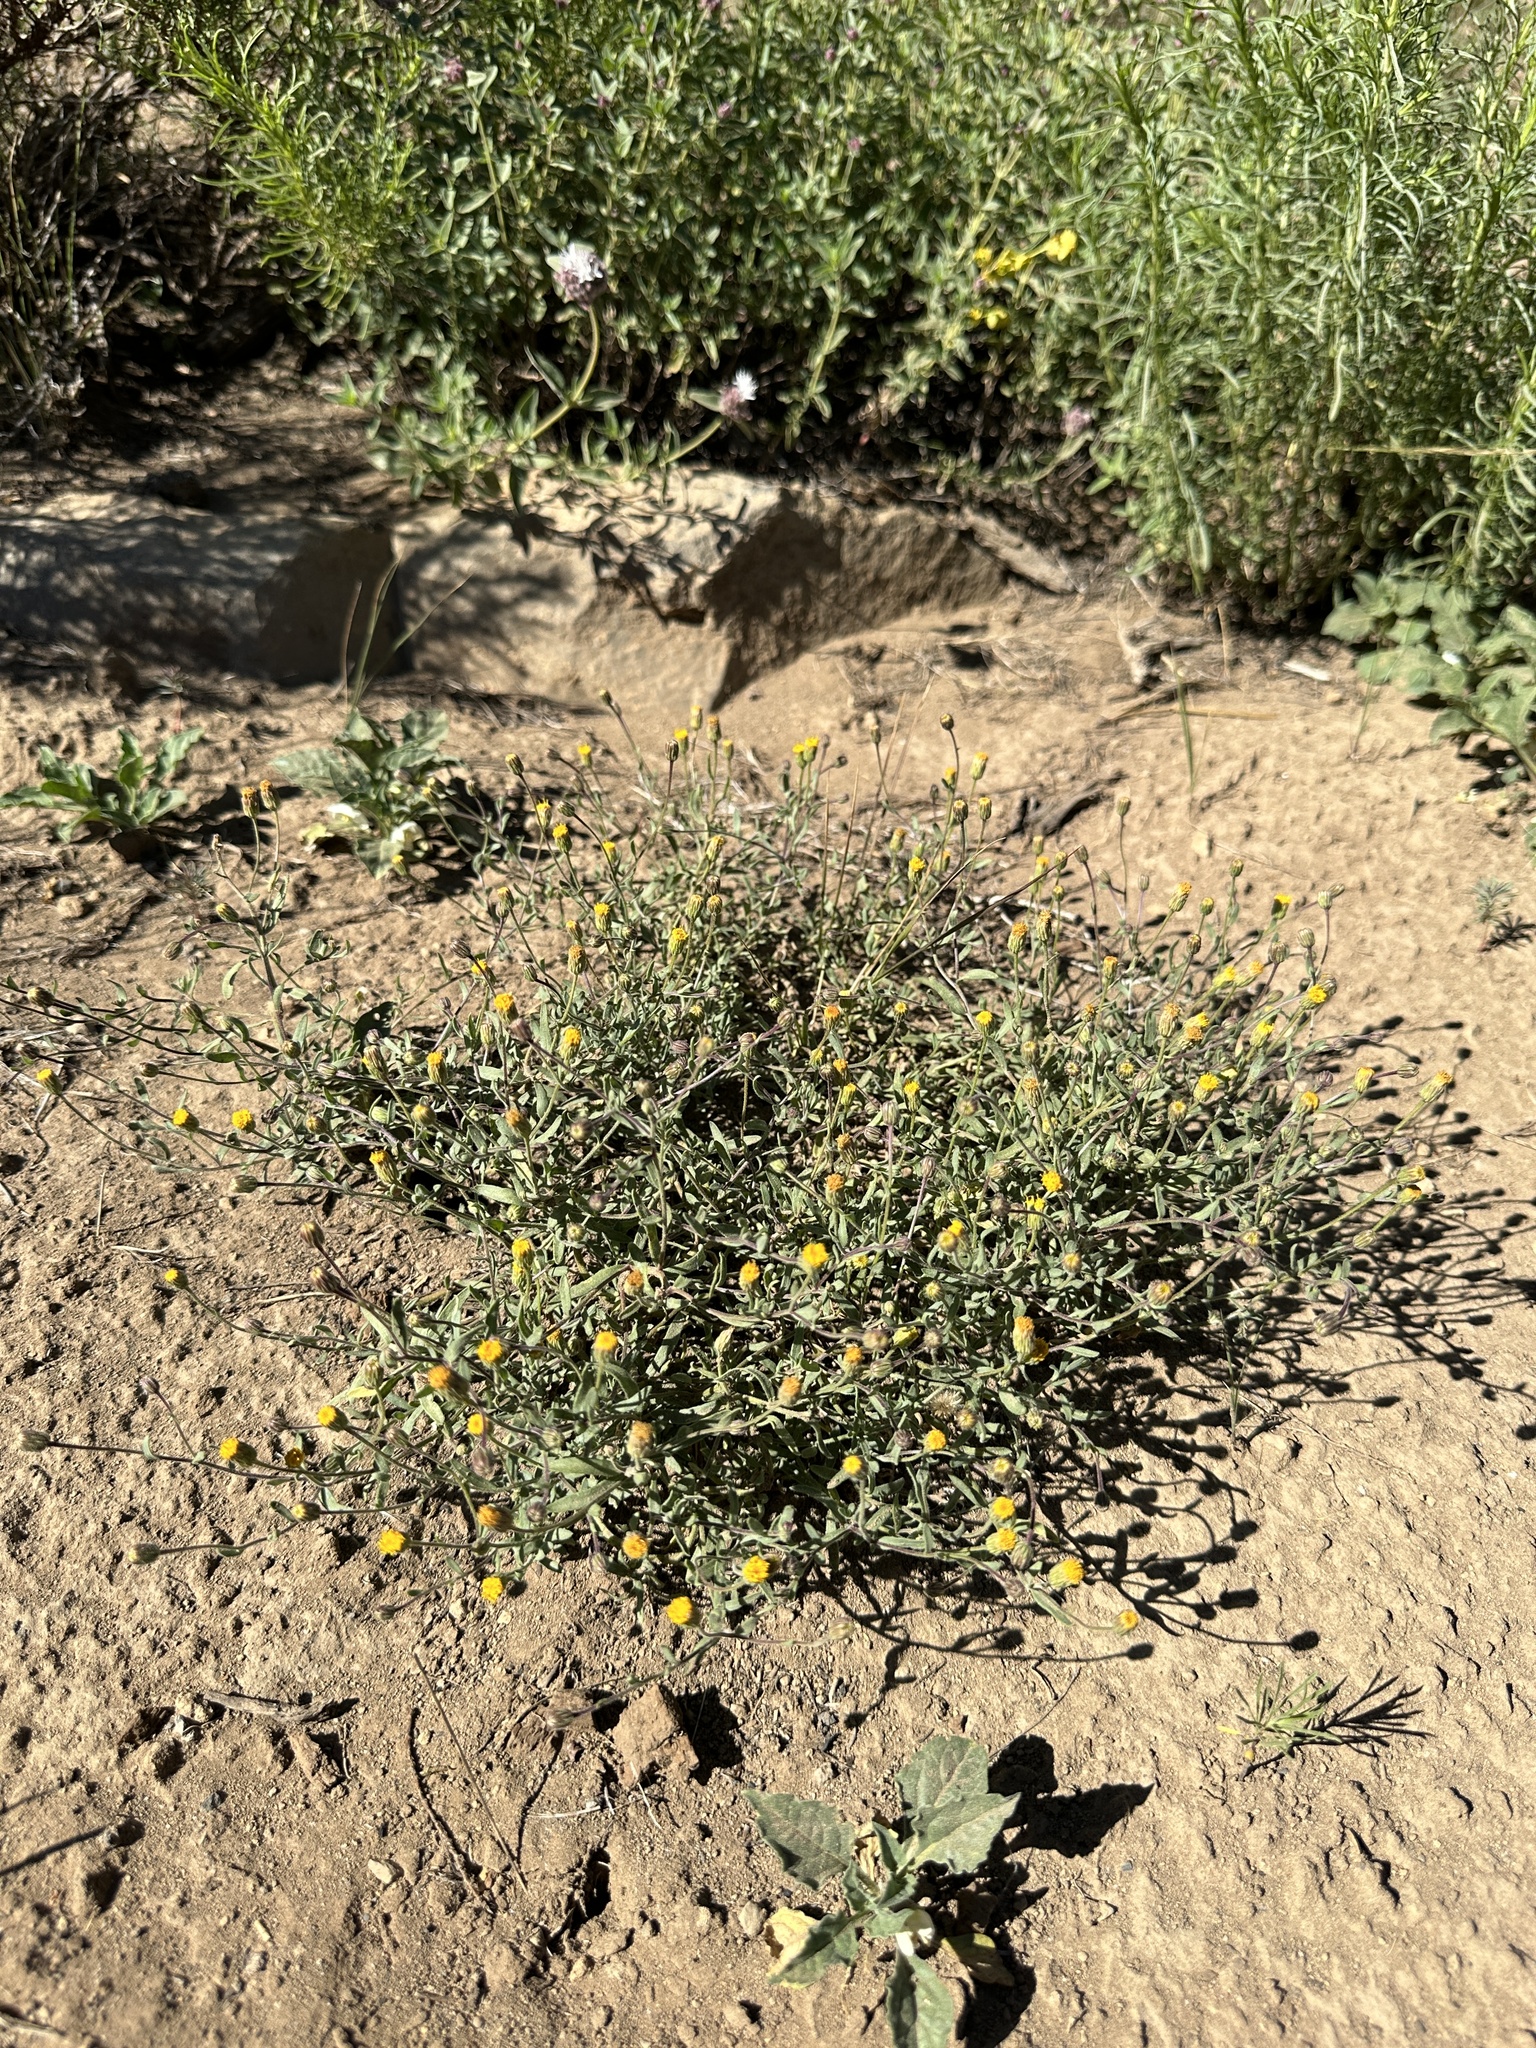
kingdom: Plantae
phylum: Tracheophyta
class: Magnoliopsida
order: Asterales
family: Asteraceae
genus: Erigeron
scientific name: Erigeron inornatus
